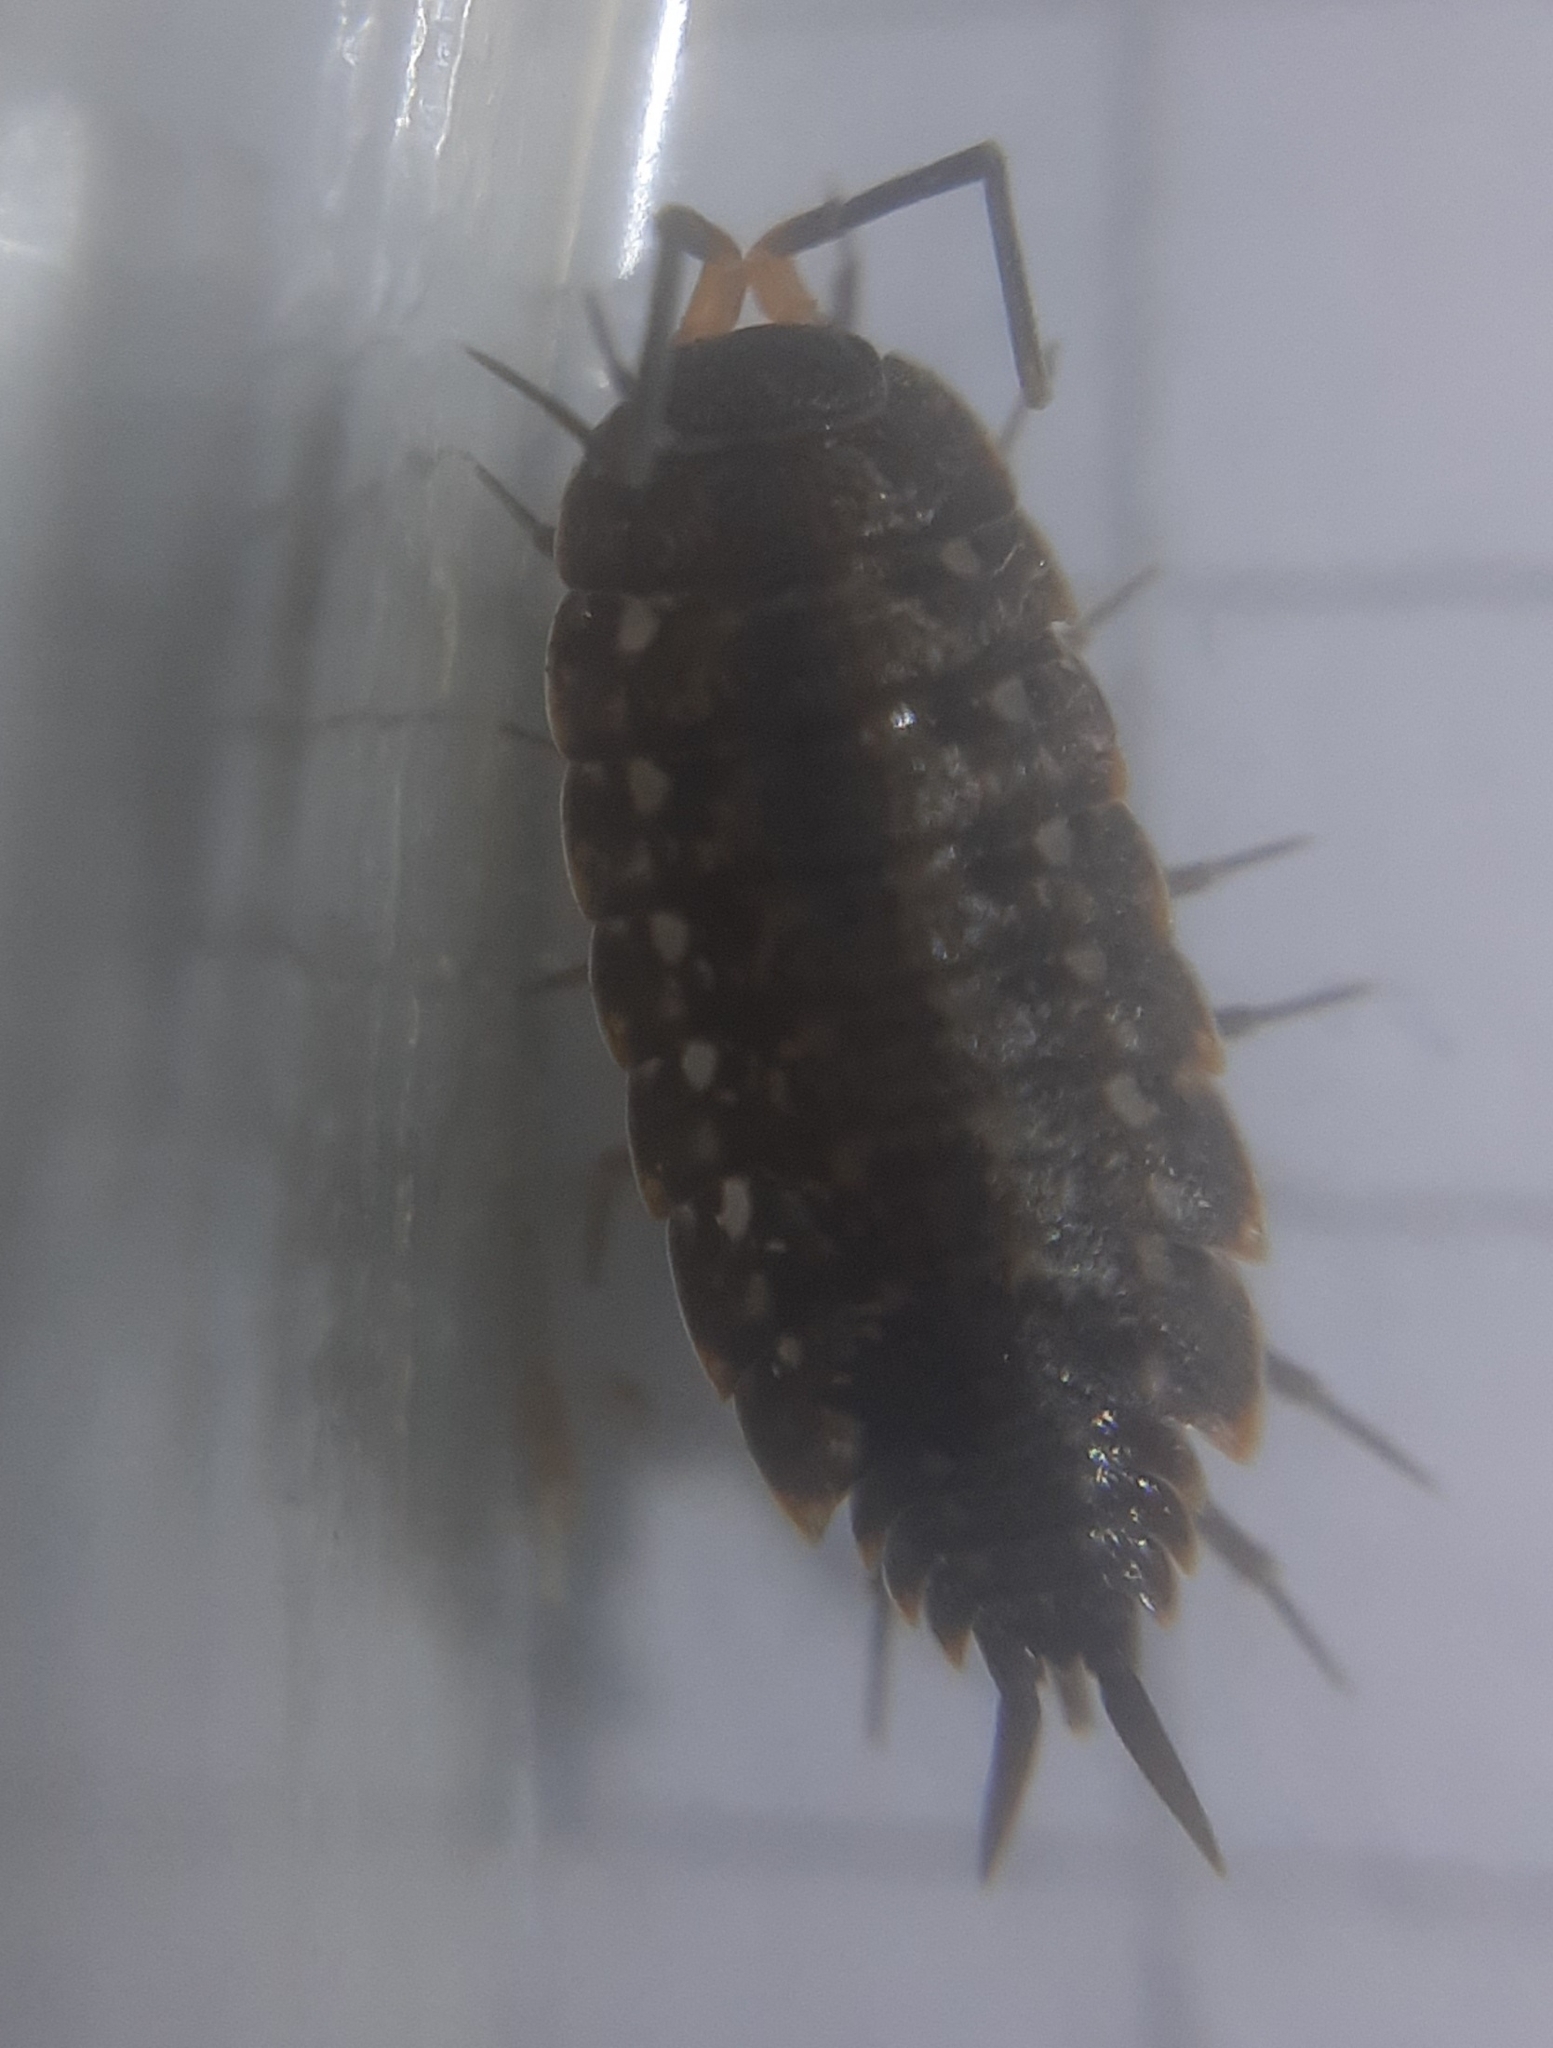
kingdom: Animalia
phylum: Arthropoda
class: Malacostraca
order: Isopoda
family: Agnaridae
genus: Orthometopon
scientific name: Orthometopon planum
